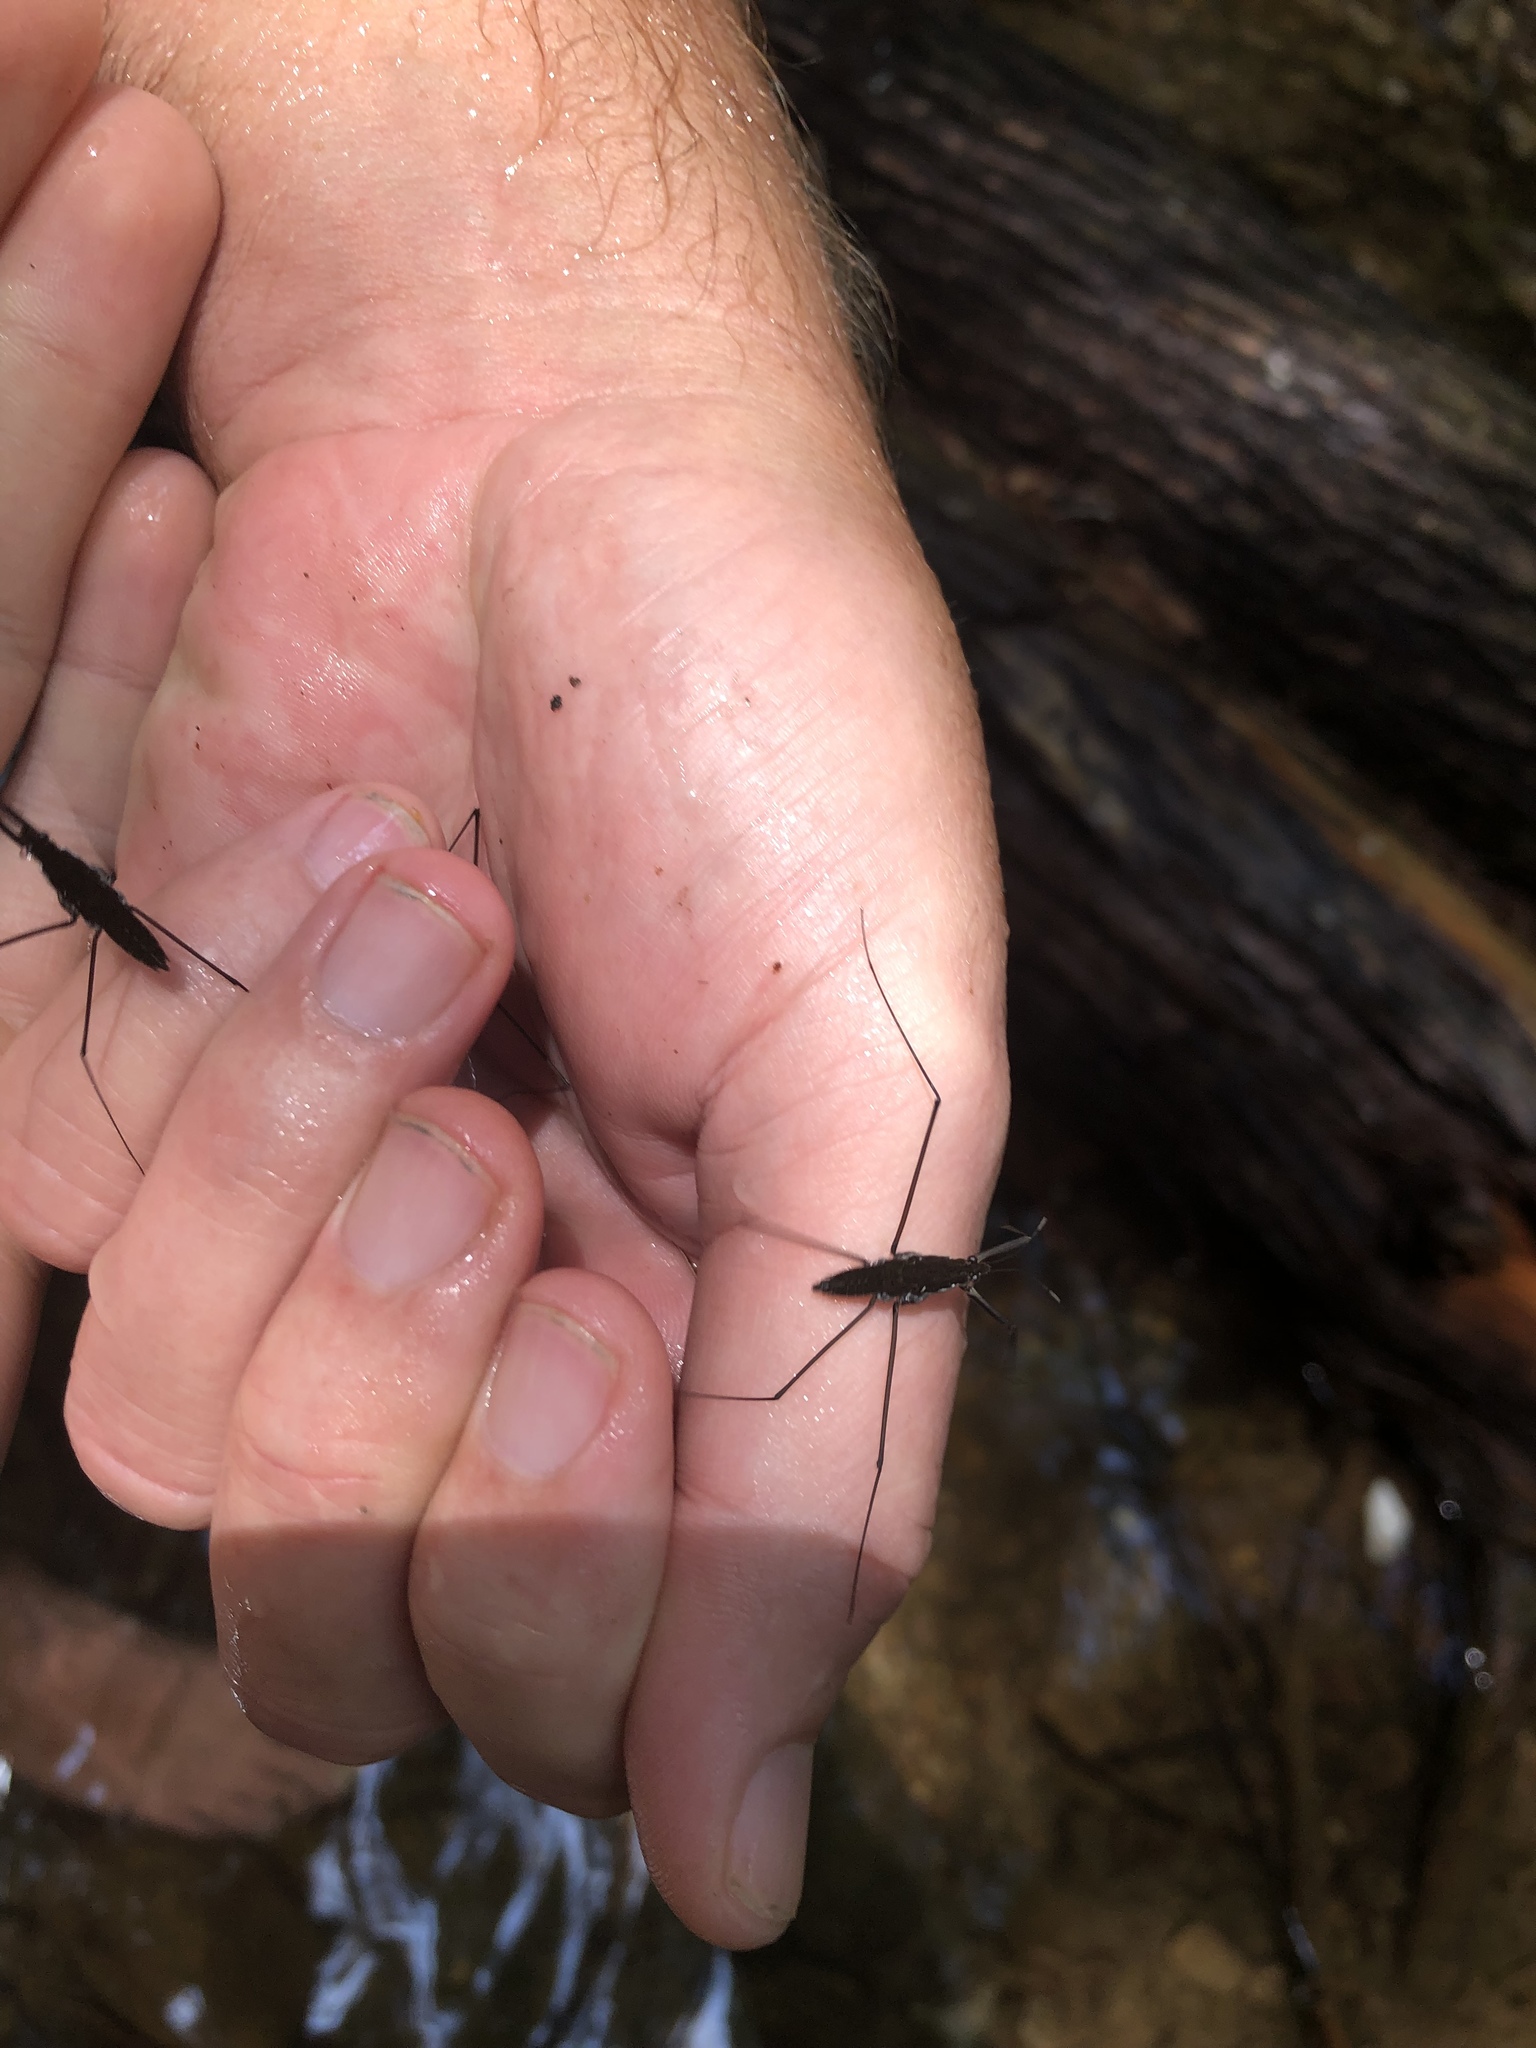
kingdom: Animalia
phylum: Arthropoda
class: Insecta
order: Hemiptera
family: Gerridae
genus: Aquarius
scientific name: Aquarius
